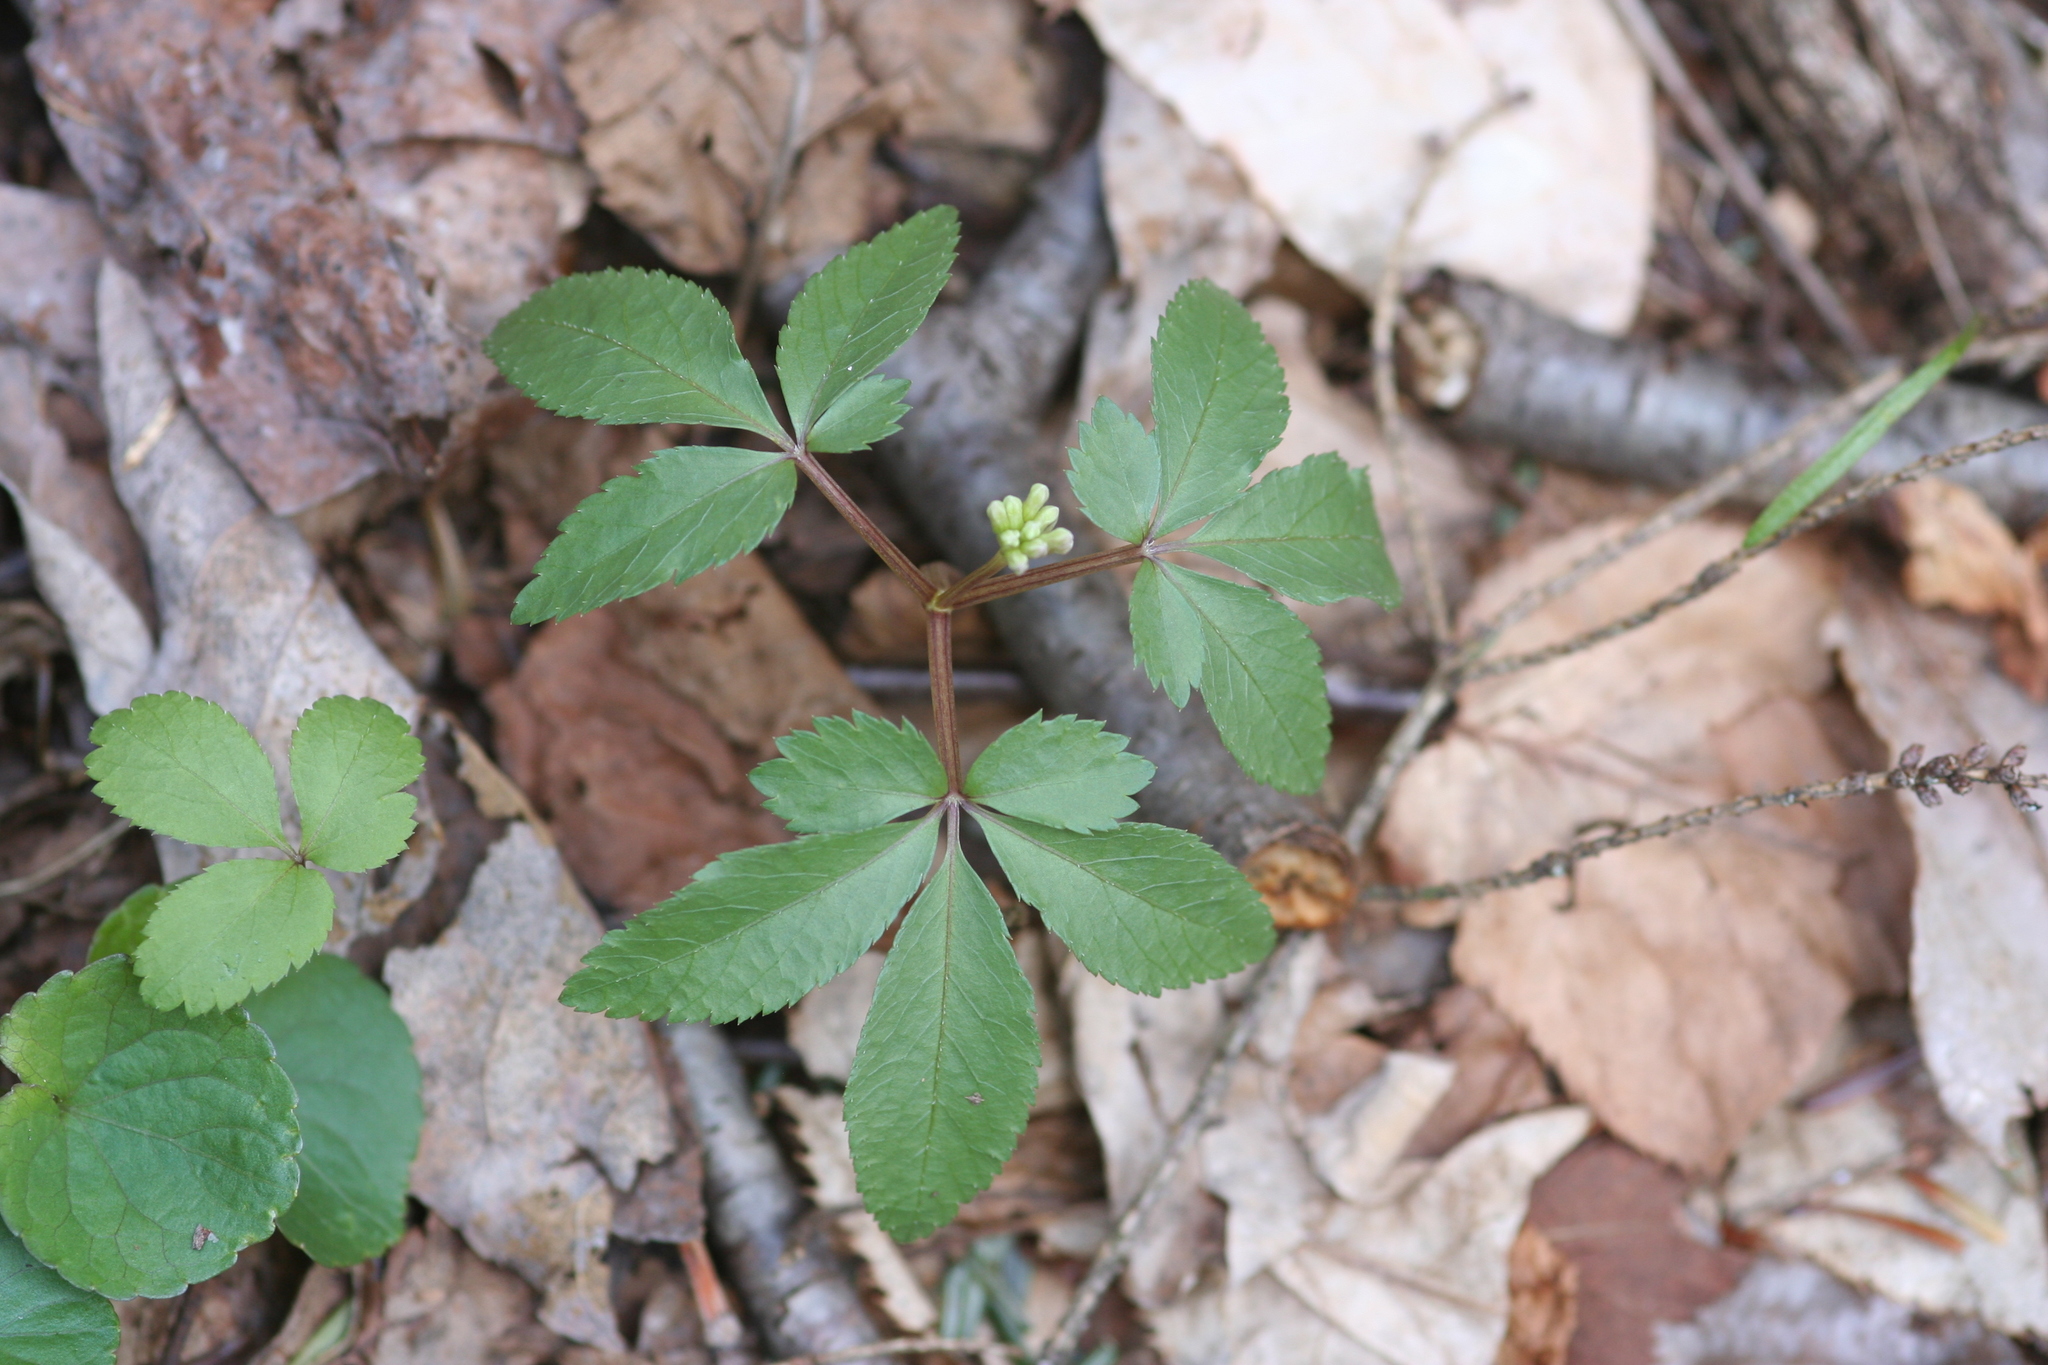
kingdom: Plantae
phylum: Tracheophyta
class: Magnoliopsida
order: Apiales
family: Araliaceae
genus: Panax
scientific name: Panax trifolius
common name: Dwarf ginseng
